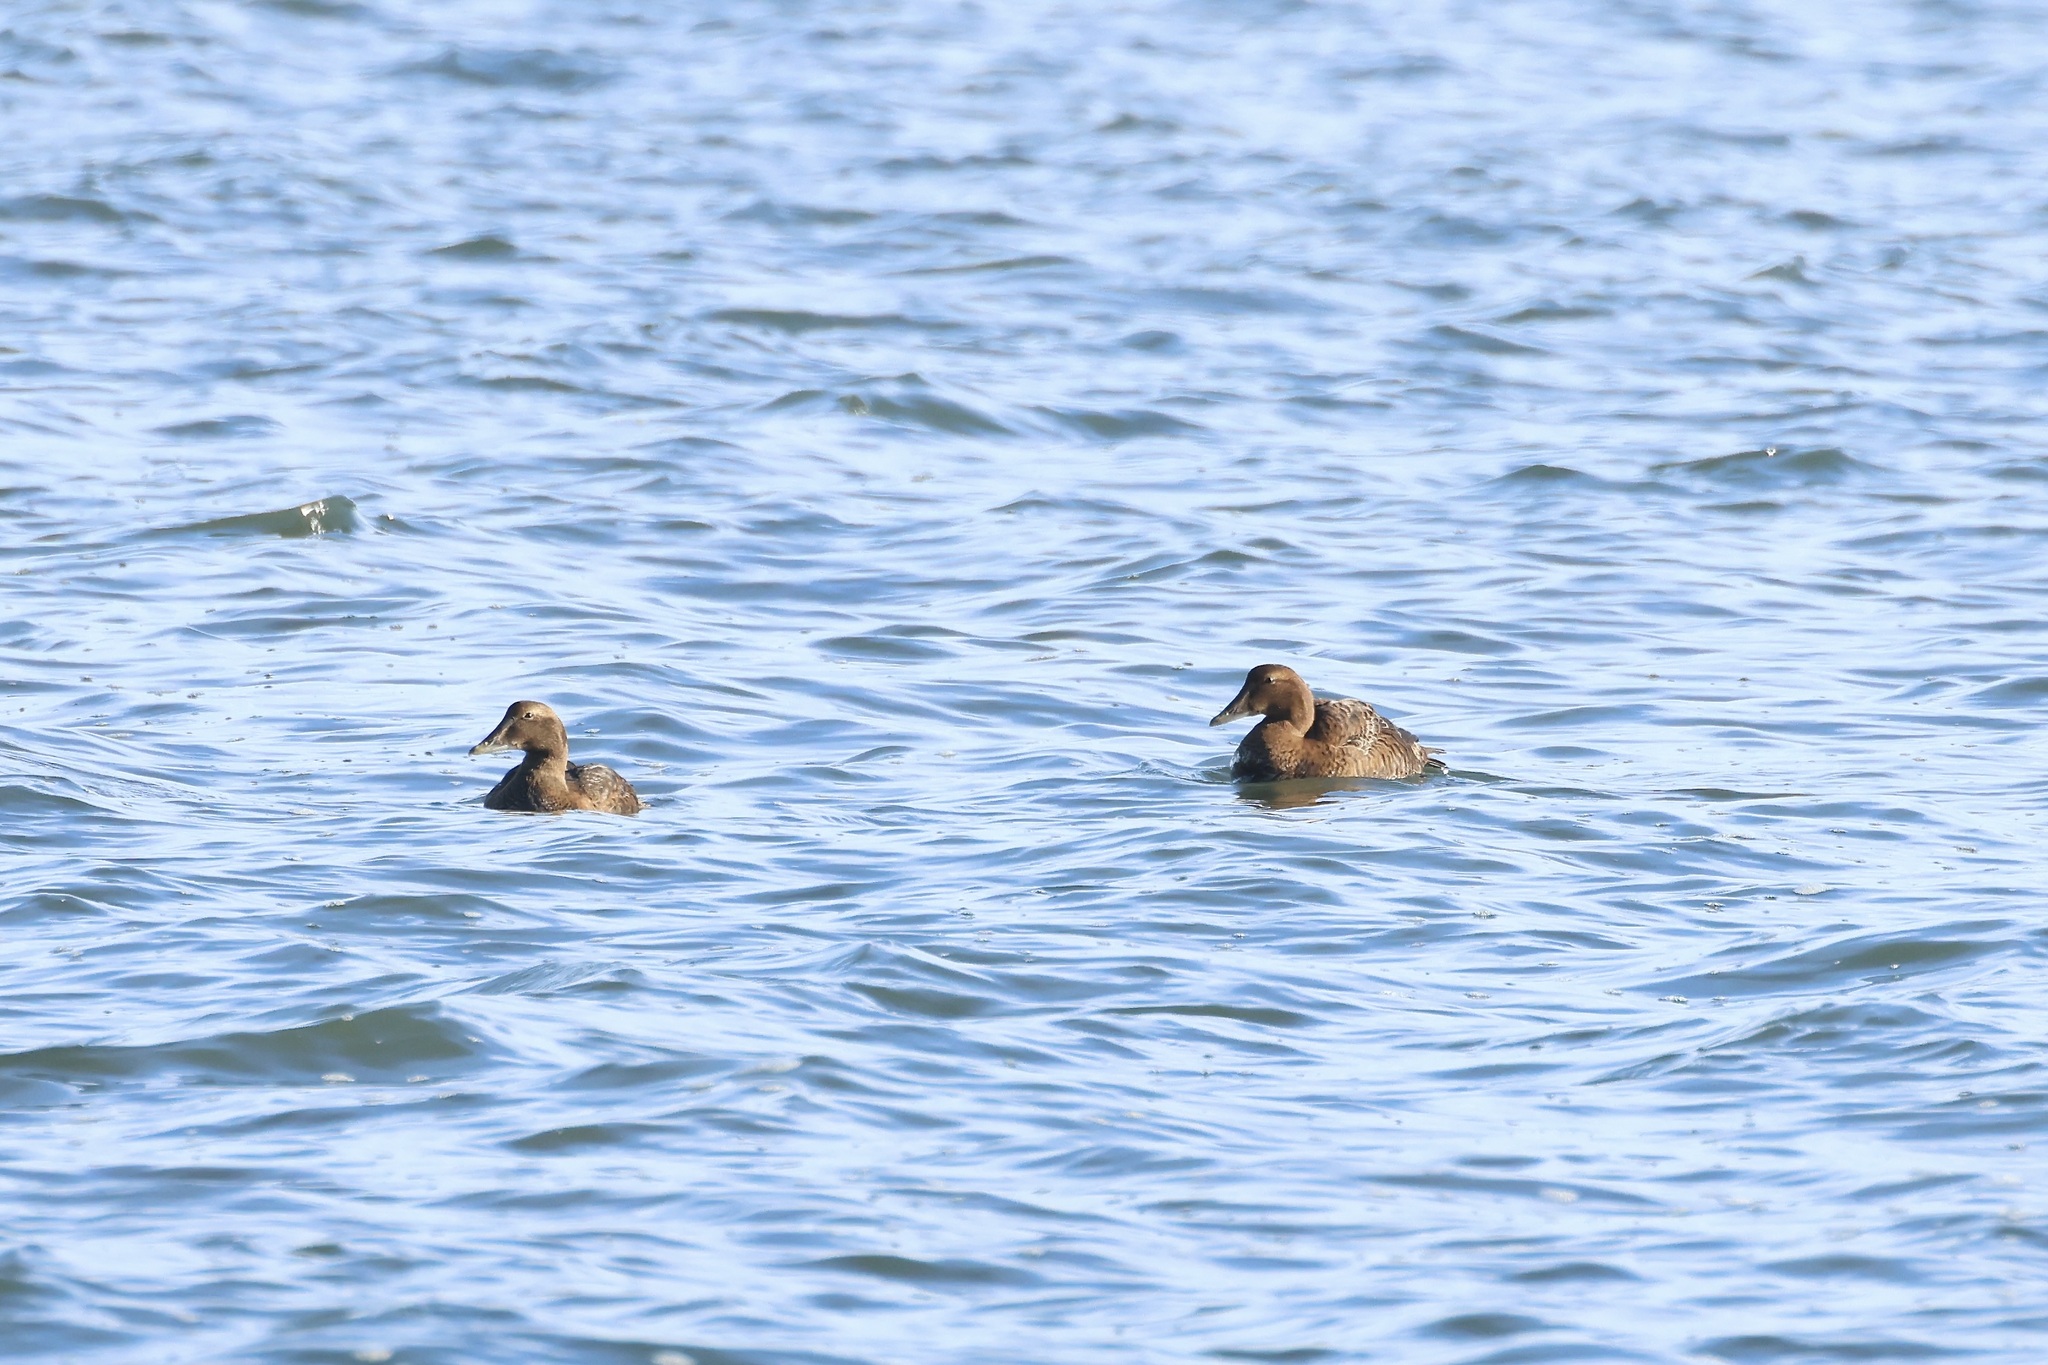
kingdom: Animalia
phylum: Chordata
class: Aves
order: Anseriformes
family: Anatidae
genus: Somateria
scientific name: Somateria mollissima
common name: Common eider
